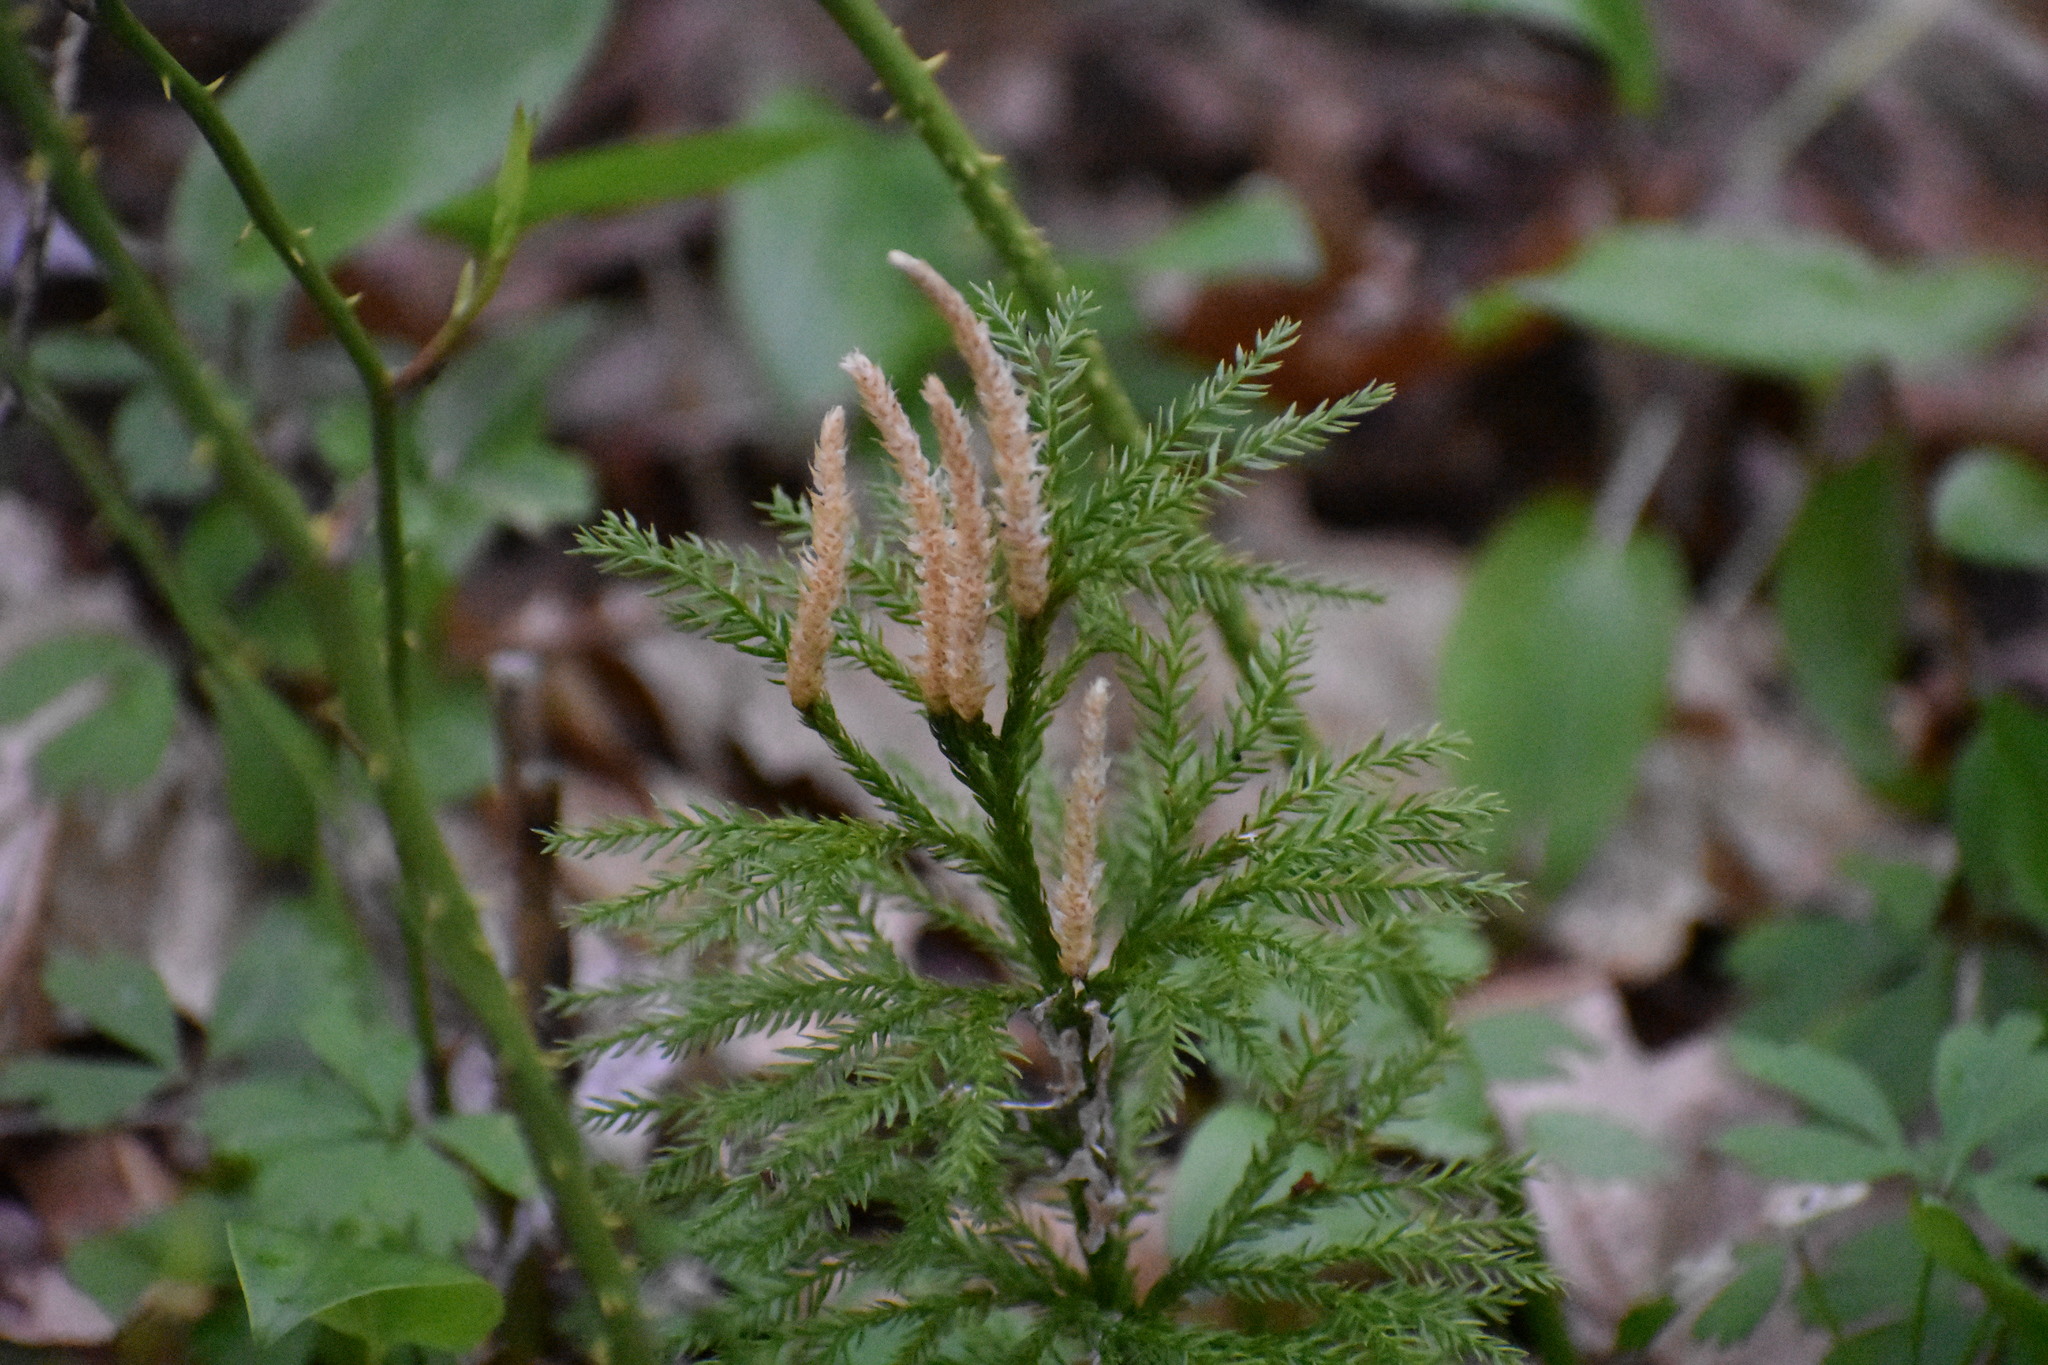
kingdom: Plantae
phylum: Tracheophyta
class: Lycopodiopsida
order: Lycopodiales
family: Lycopodiaceae
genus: Dendrolycopodium
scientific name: Dendrolycopodium obscurum
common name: Common ground-pine
